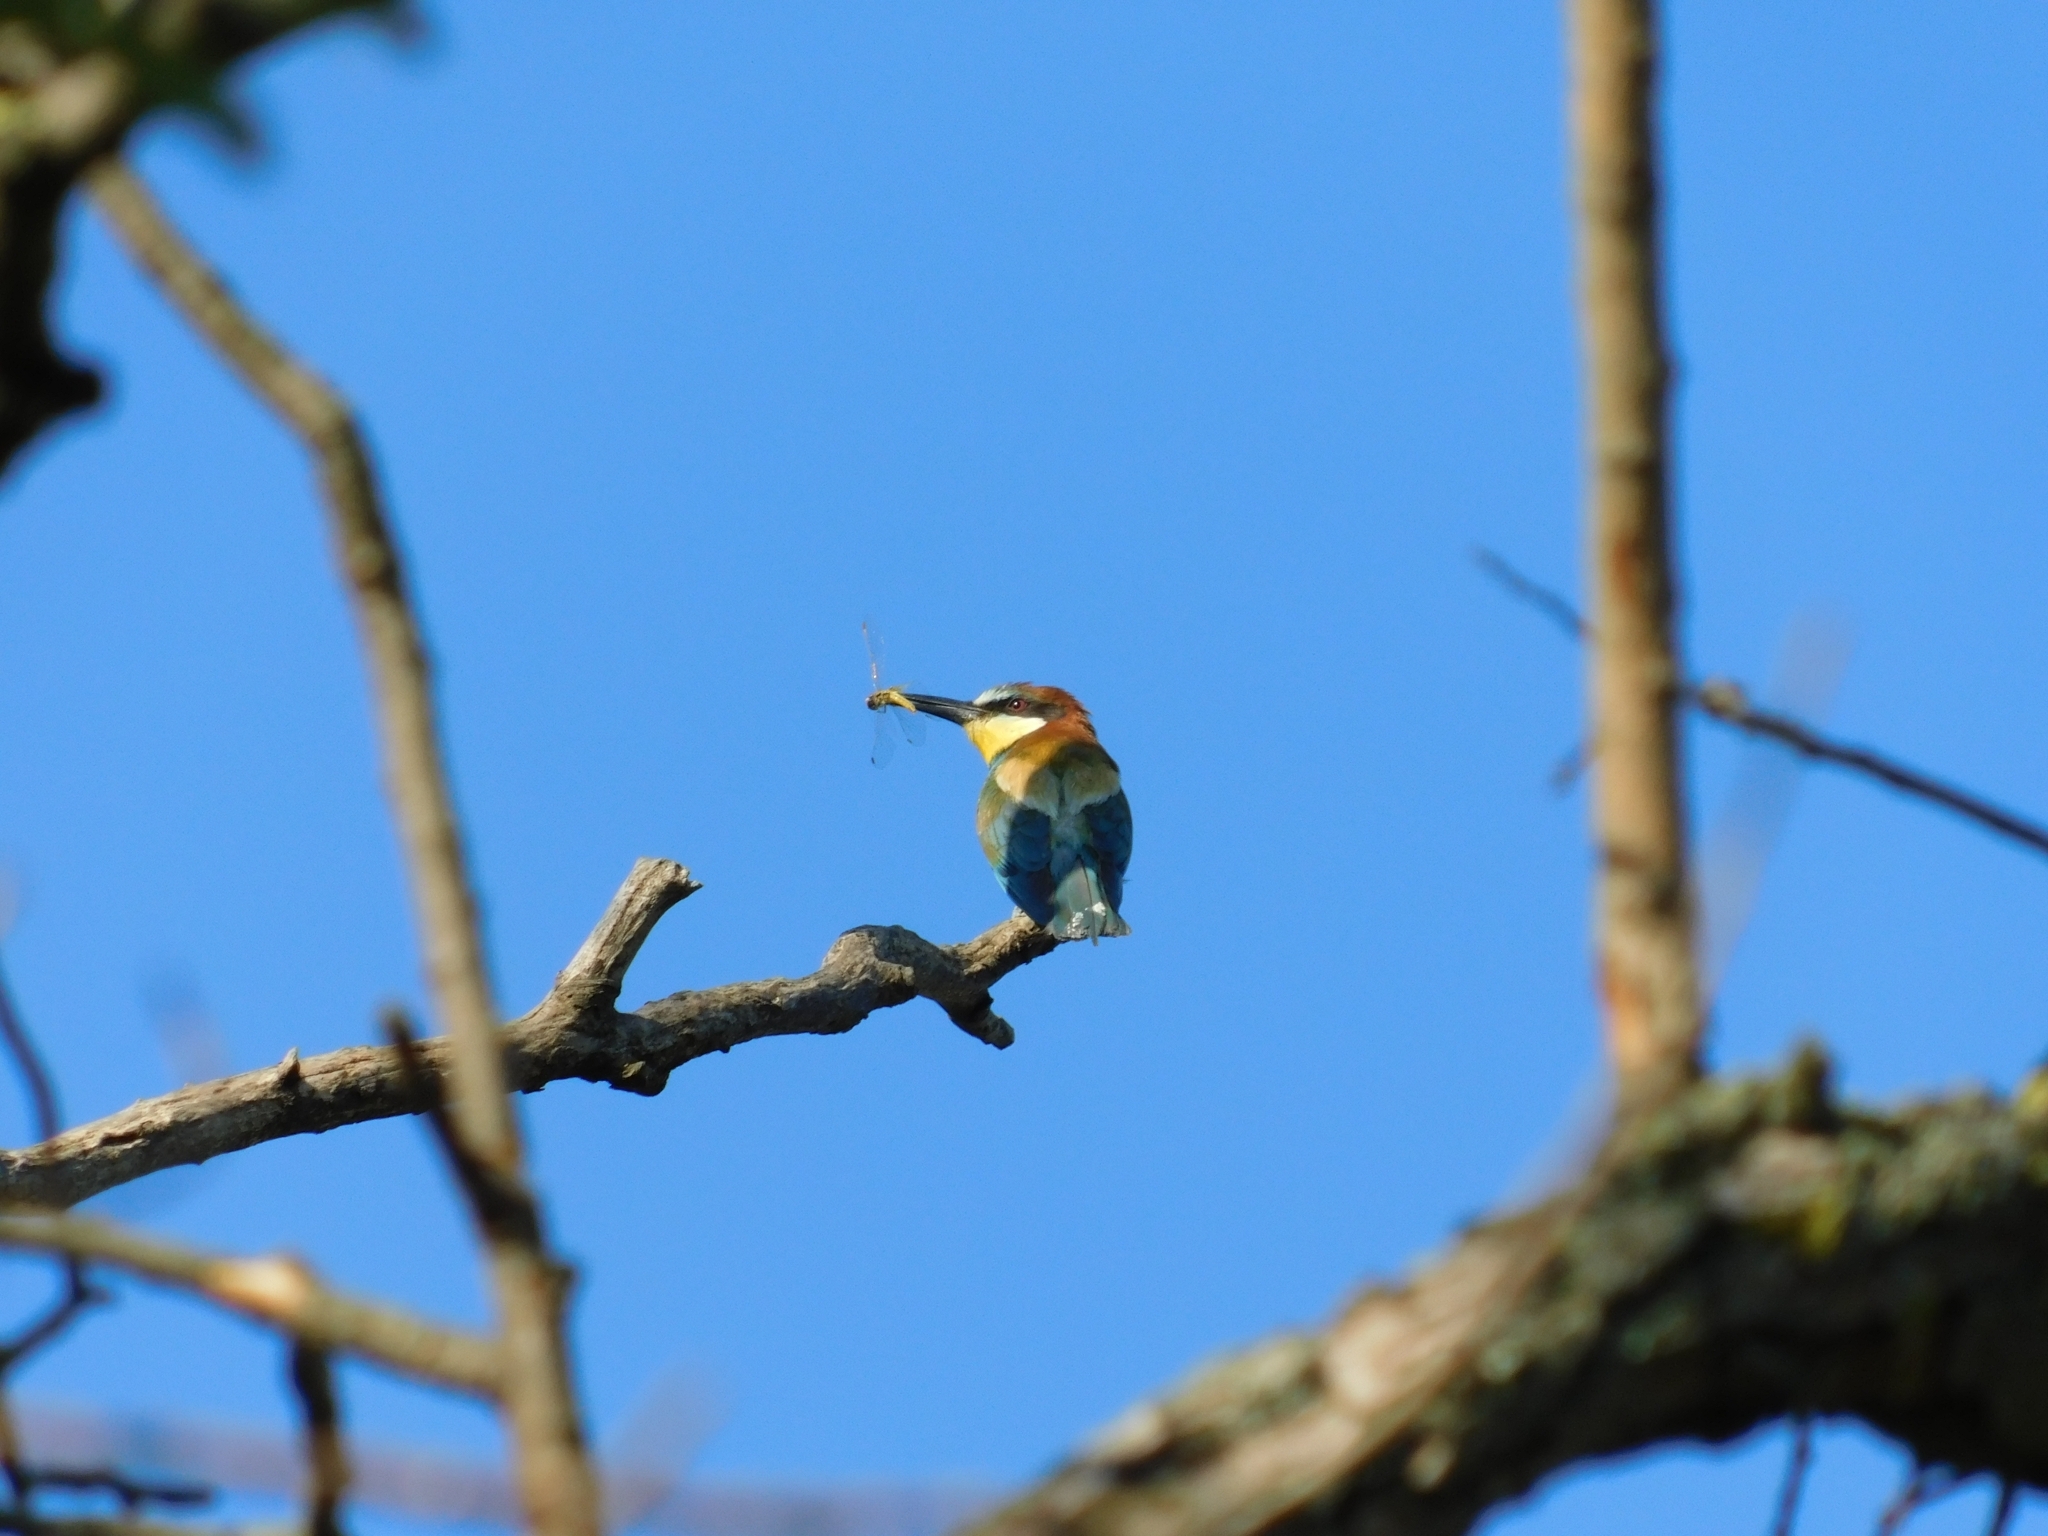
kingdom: Animalia
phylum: Chordata
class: Aves
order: Coraciiformes
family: Meropidae
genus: Merops
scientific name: Merops apiaster
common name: European bee-eater
